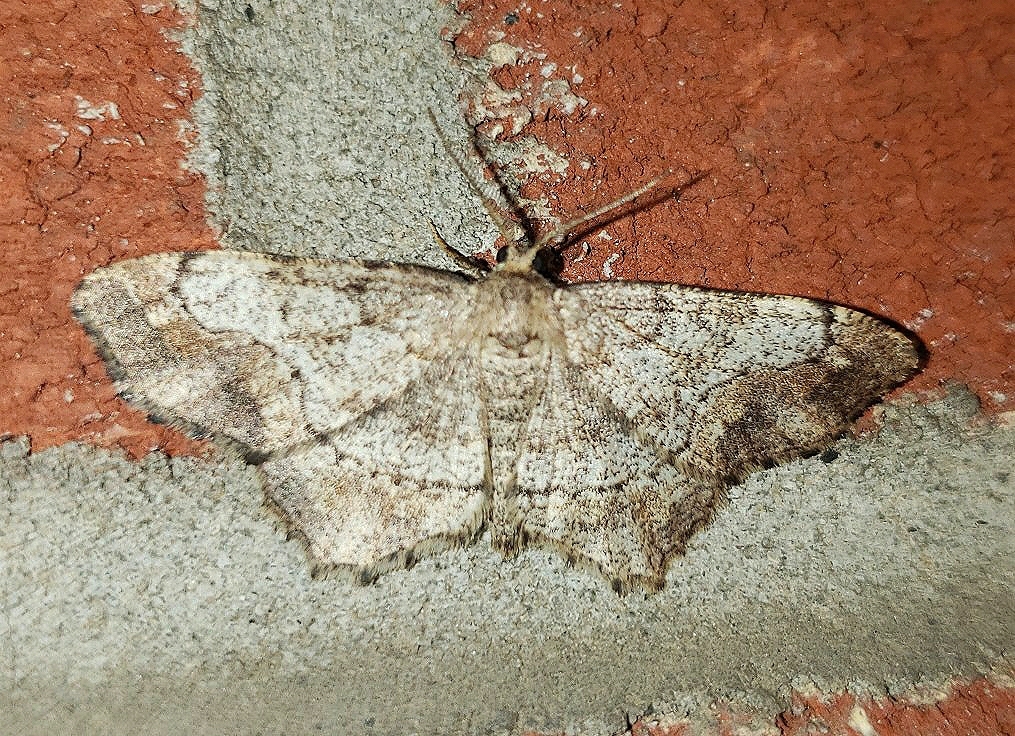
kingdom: Animalia
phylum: Arthropoda
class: Insecta
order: Lepidoptera
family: Geometridae
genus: Hypagyrtis
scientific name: Hypagyrtis unipunctata
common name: One-spotted variant
